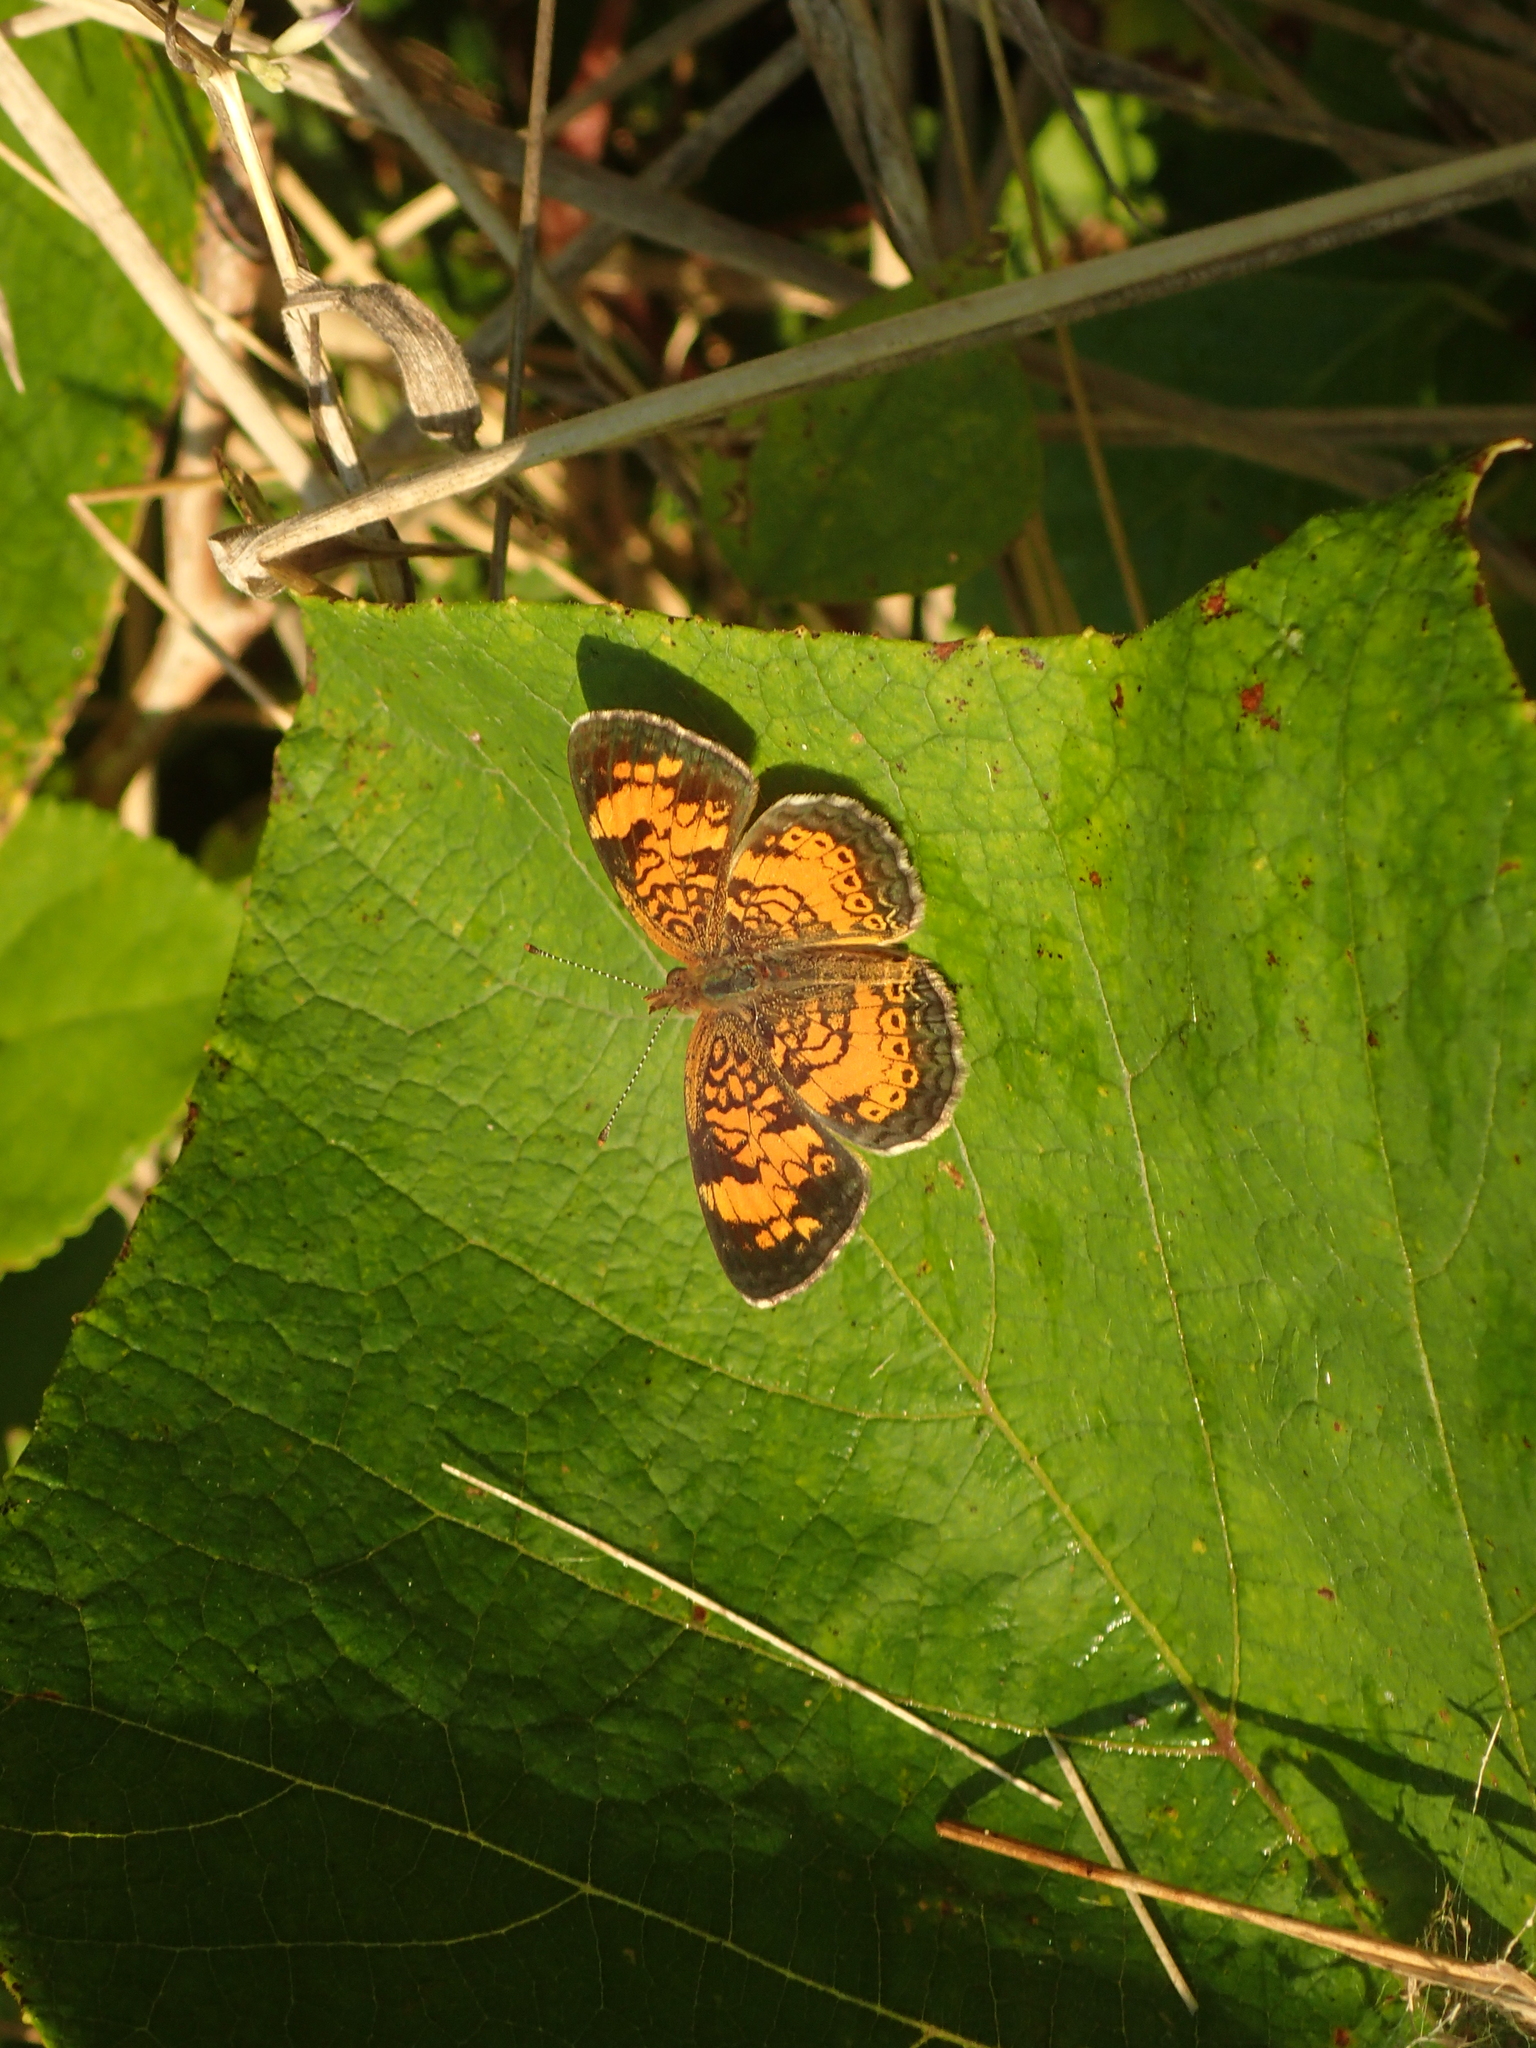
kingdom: Animalia
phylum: Arthropoda
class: Insecta
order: Lepidoptera
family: Nymphalidae
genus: Phyciodes
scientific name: Phyciodes tharos
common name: Pearl crescent
